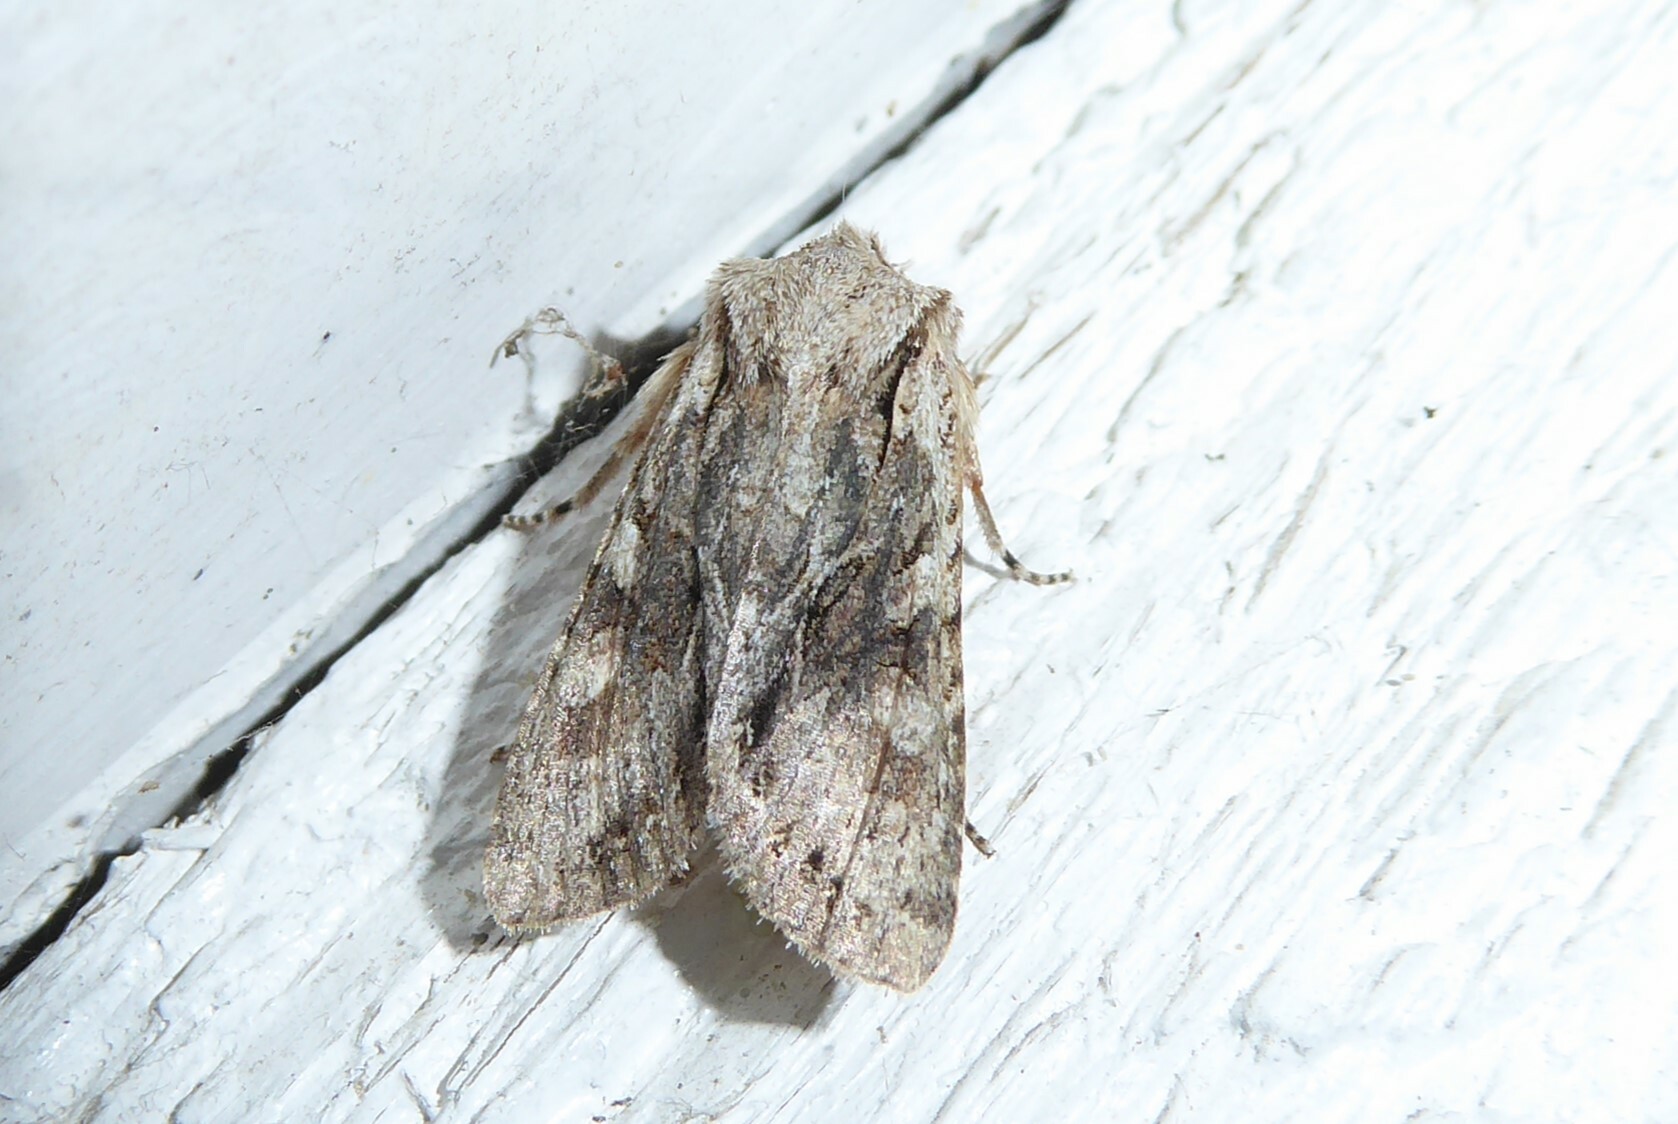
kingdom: Animalia
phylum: Arthropoda
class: Insecta
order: Lepidoptera
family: Noctuidae
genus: Ichneutica
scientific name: Ichneutica mutans
